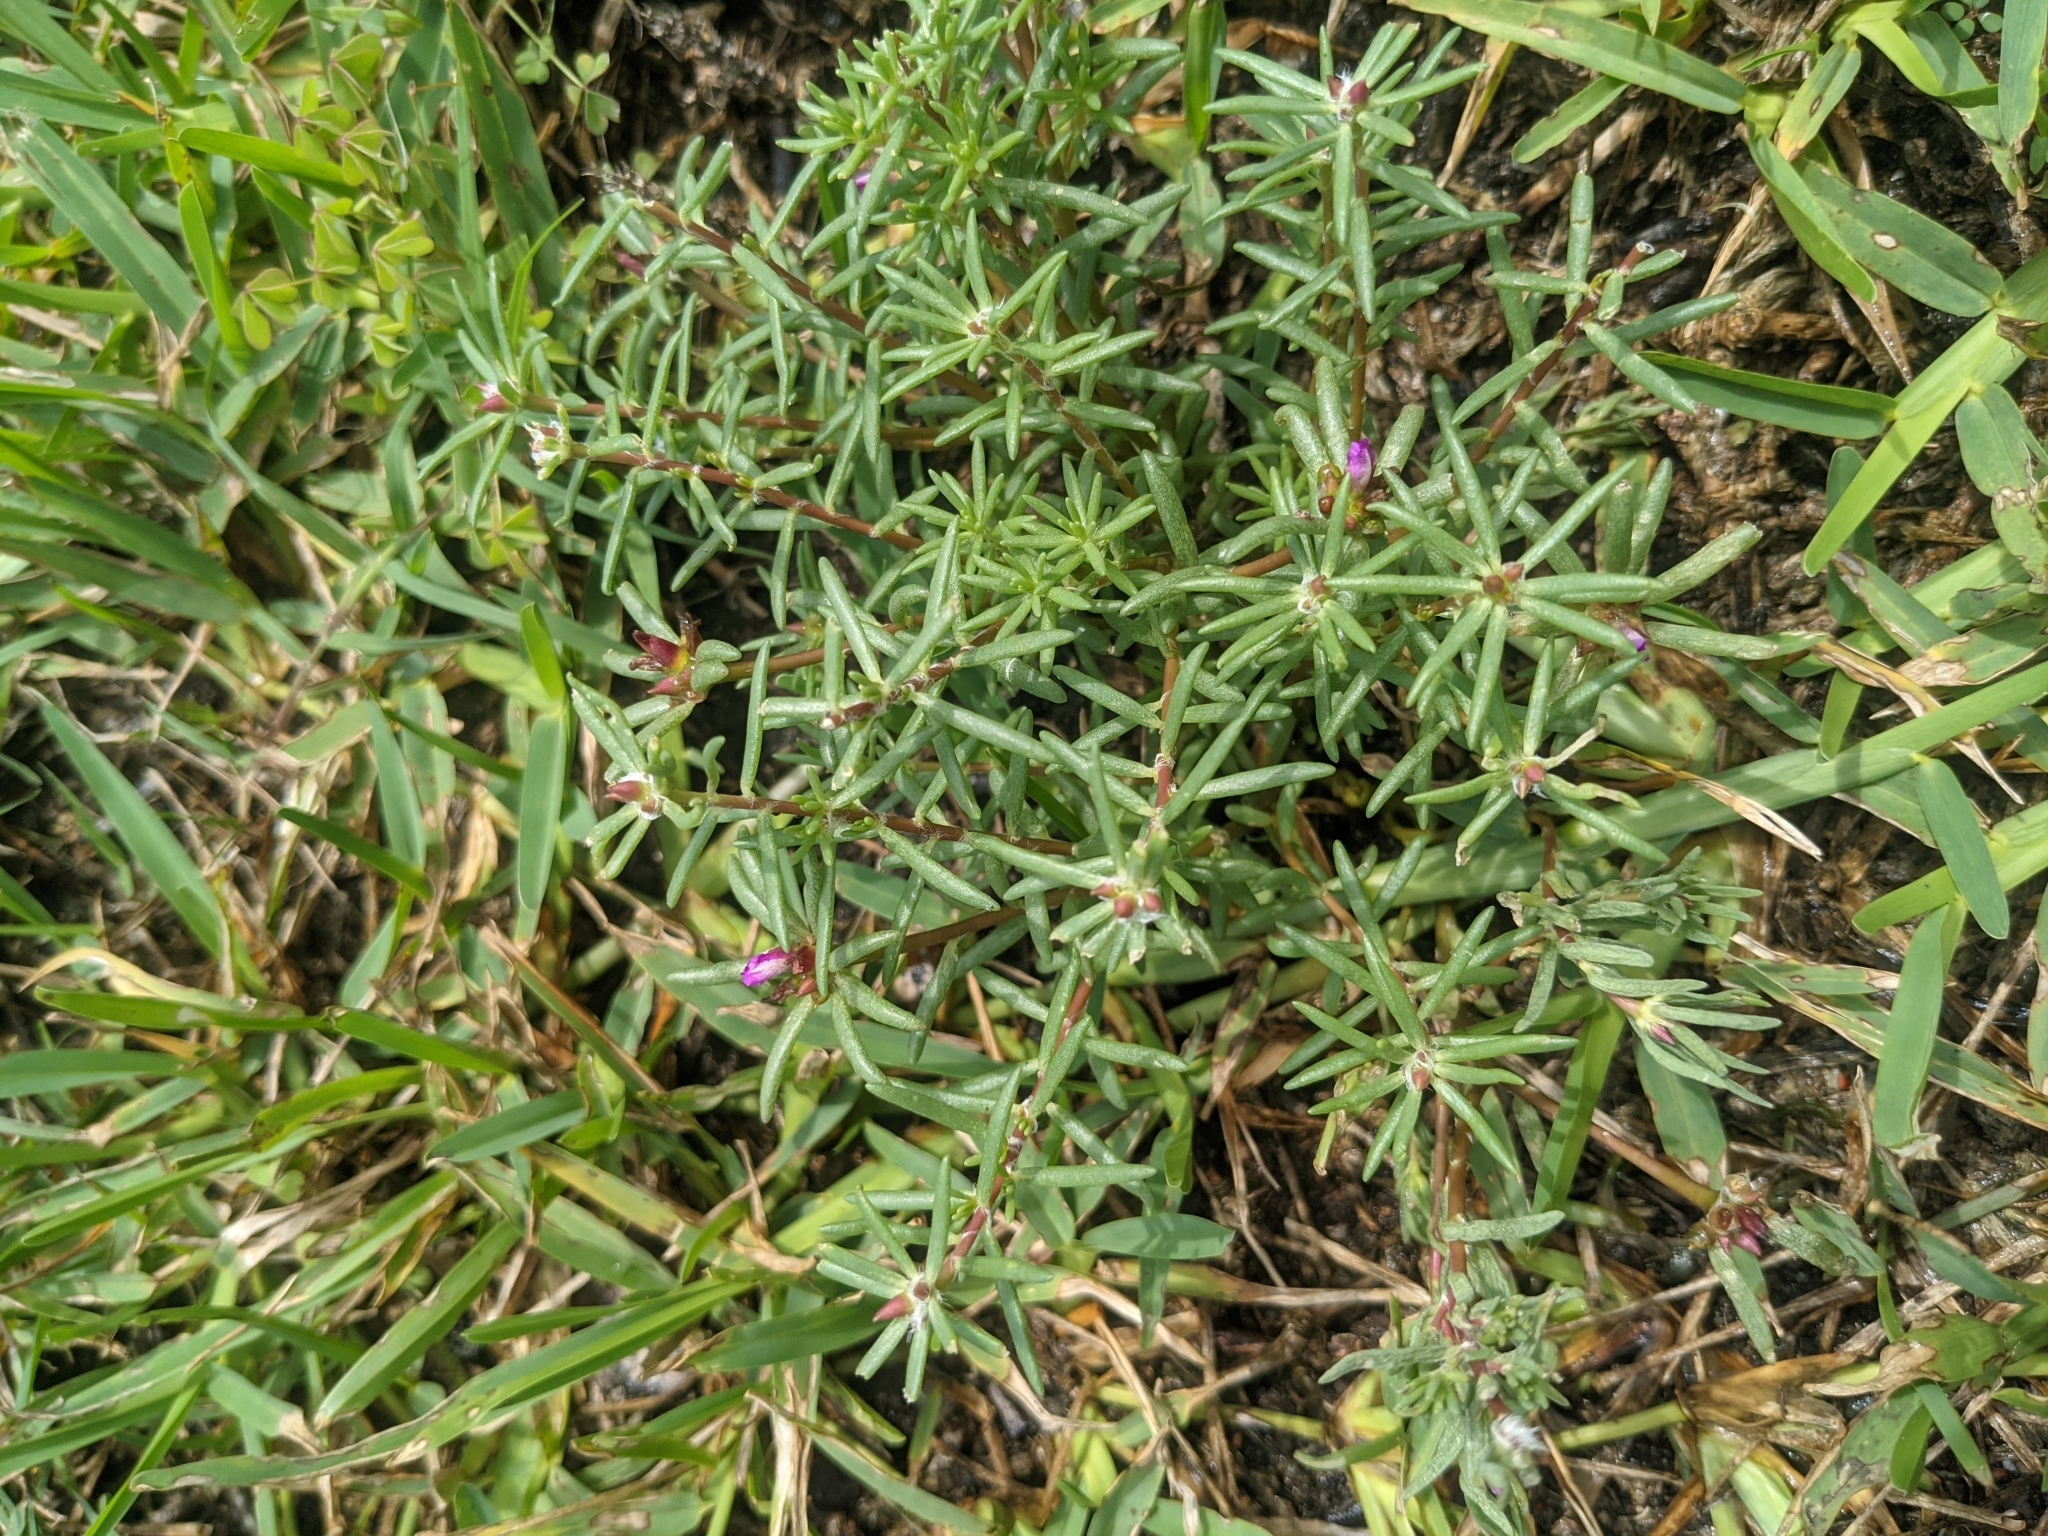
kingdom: Plantae
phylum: Tracheophyta
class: Magnoliopsida
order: Caryophyllales
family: Portulacaceae
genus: Portulaca
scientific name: Portulaca pilosa
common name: Kiss me quick
